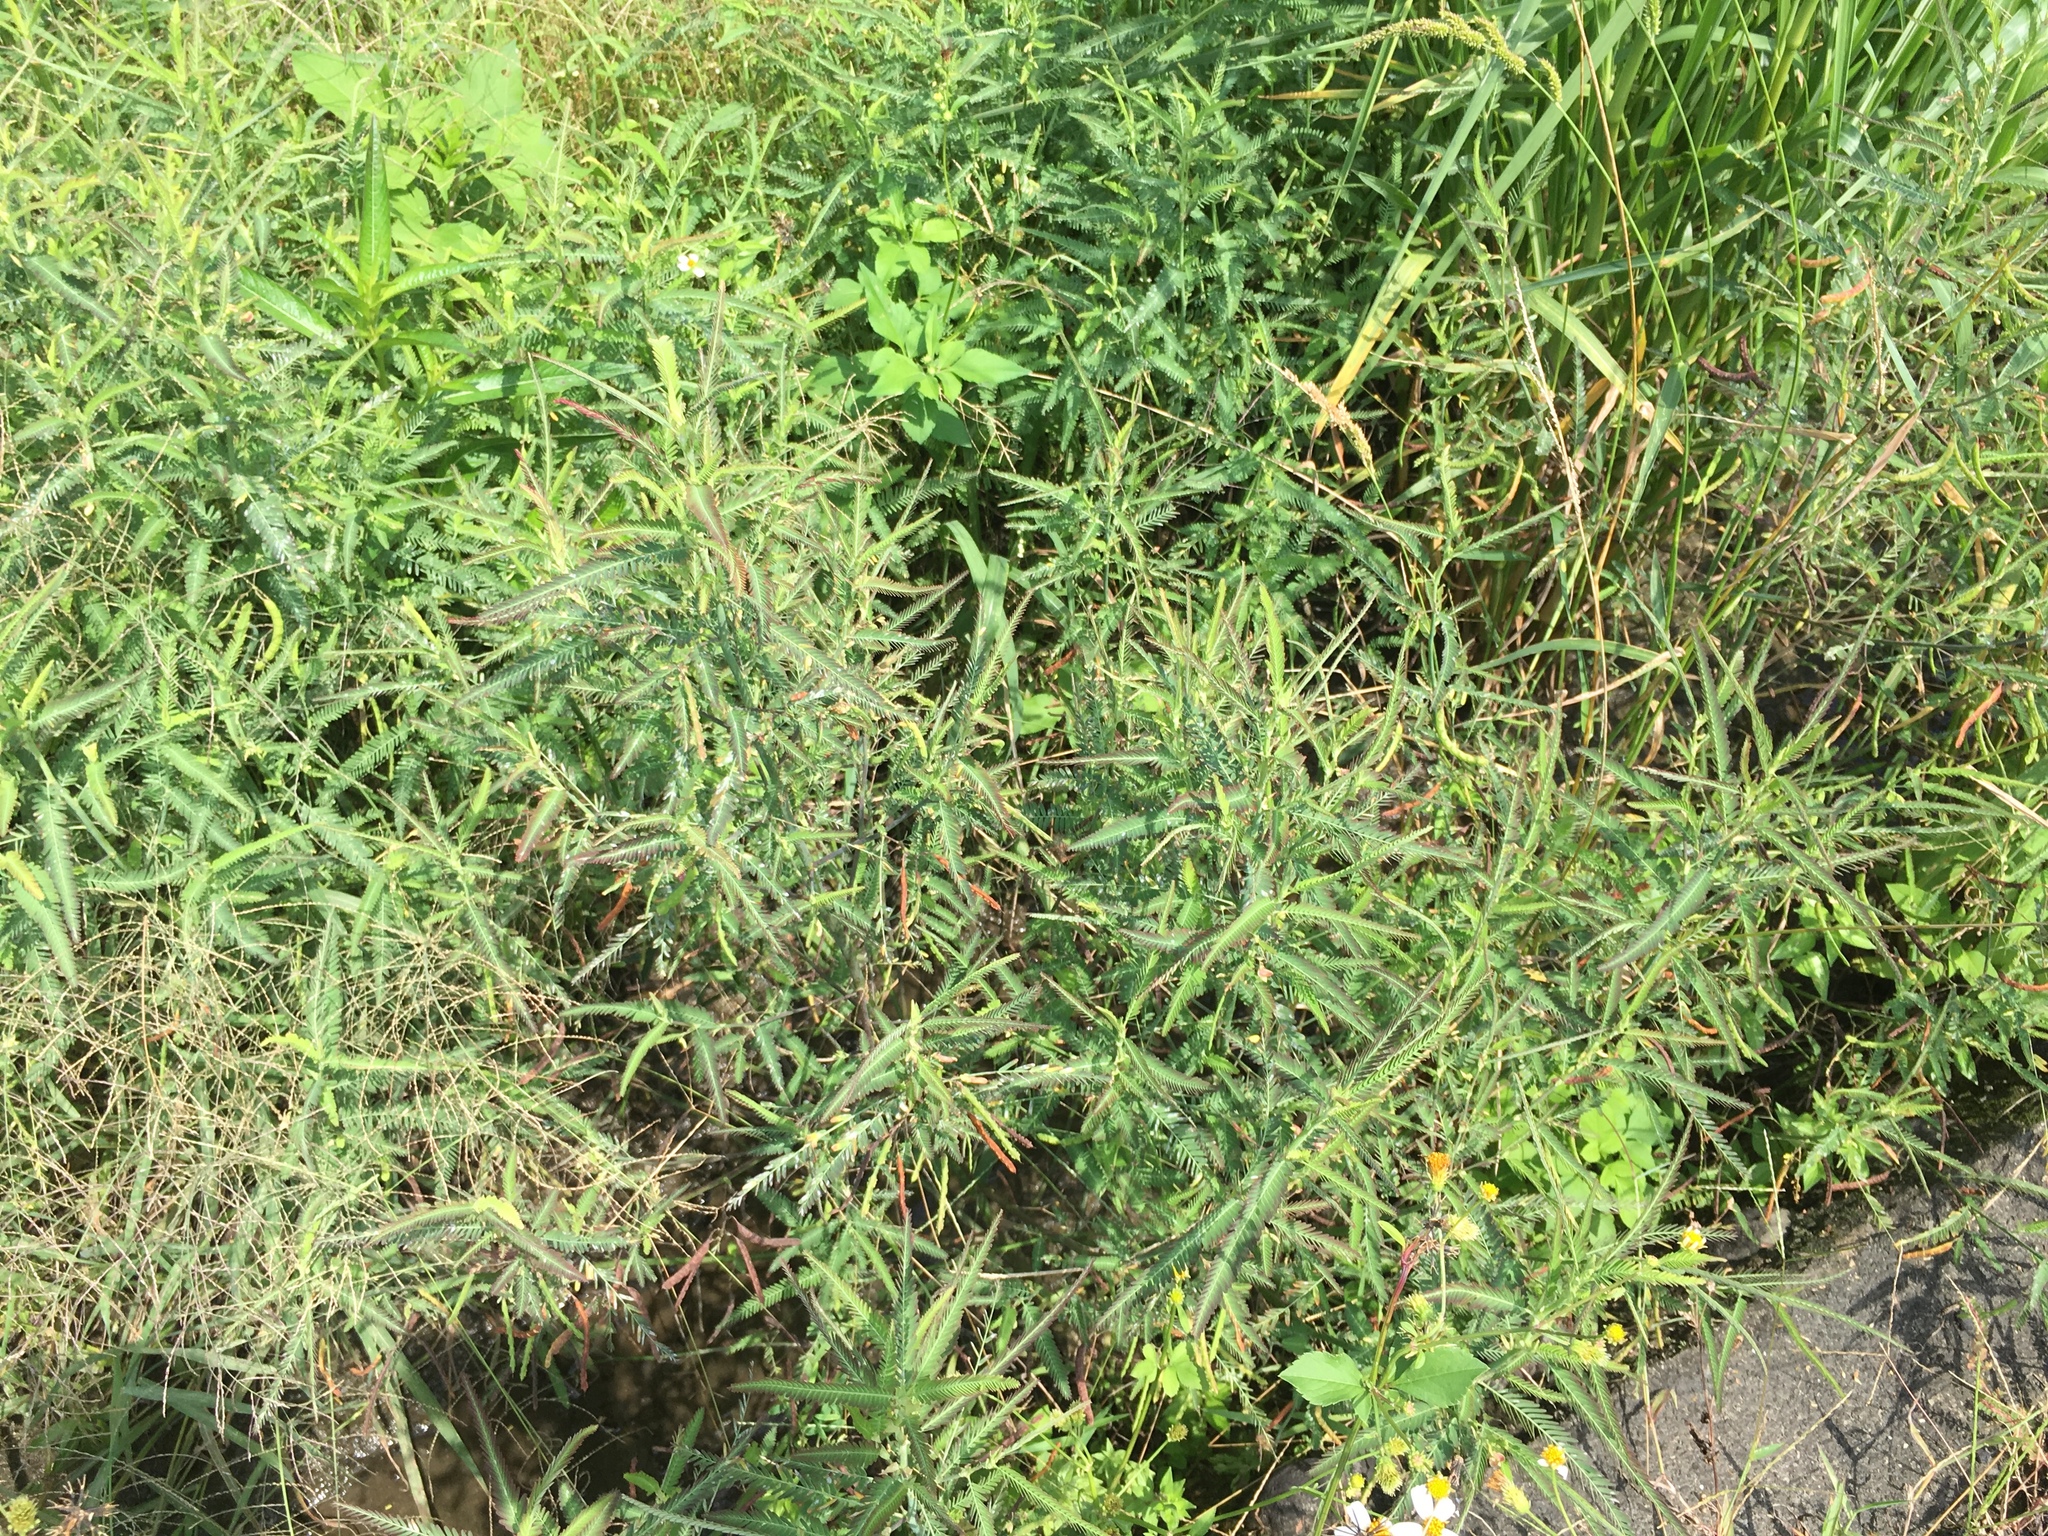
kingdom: Plantae
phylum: Tracheophyta
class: Magnoliopsida
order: Fabales
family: Fabaceae
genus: Aeschynomene
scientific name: Aeschynomene indica
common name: Indian jointvetch
